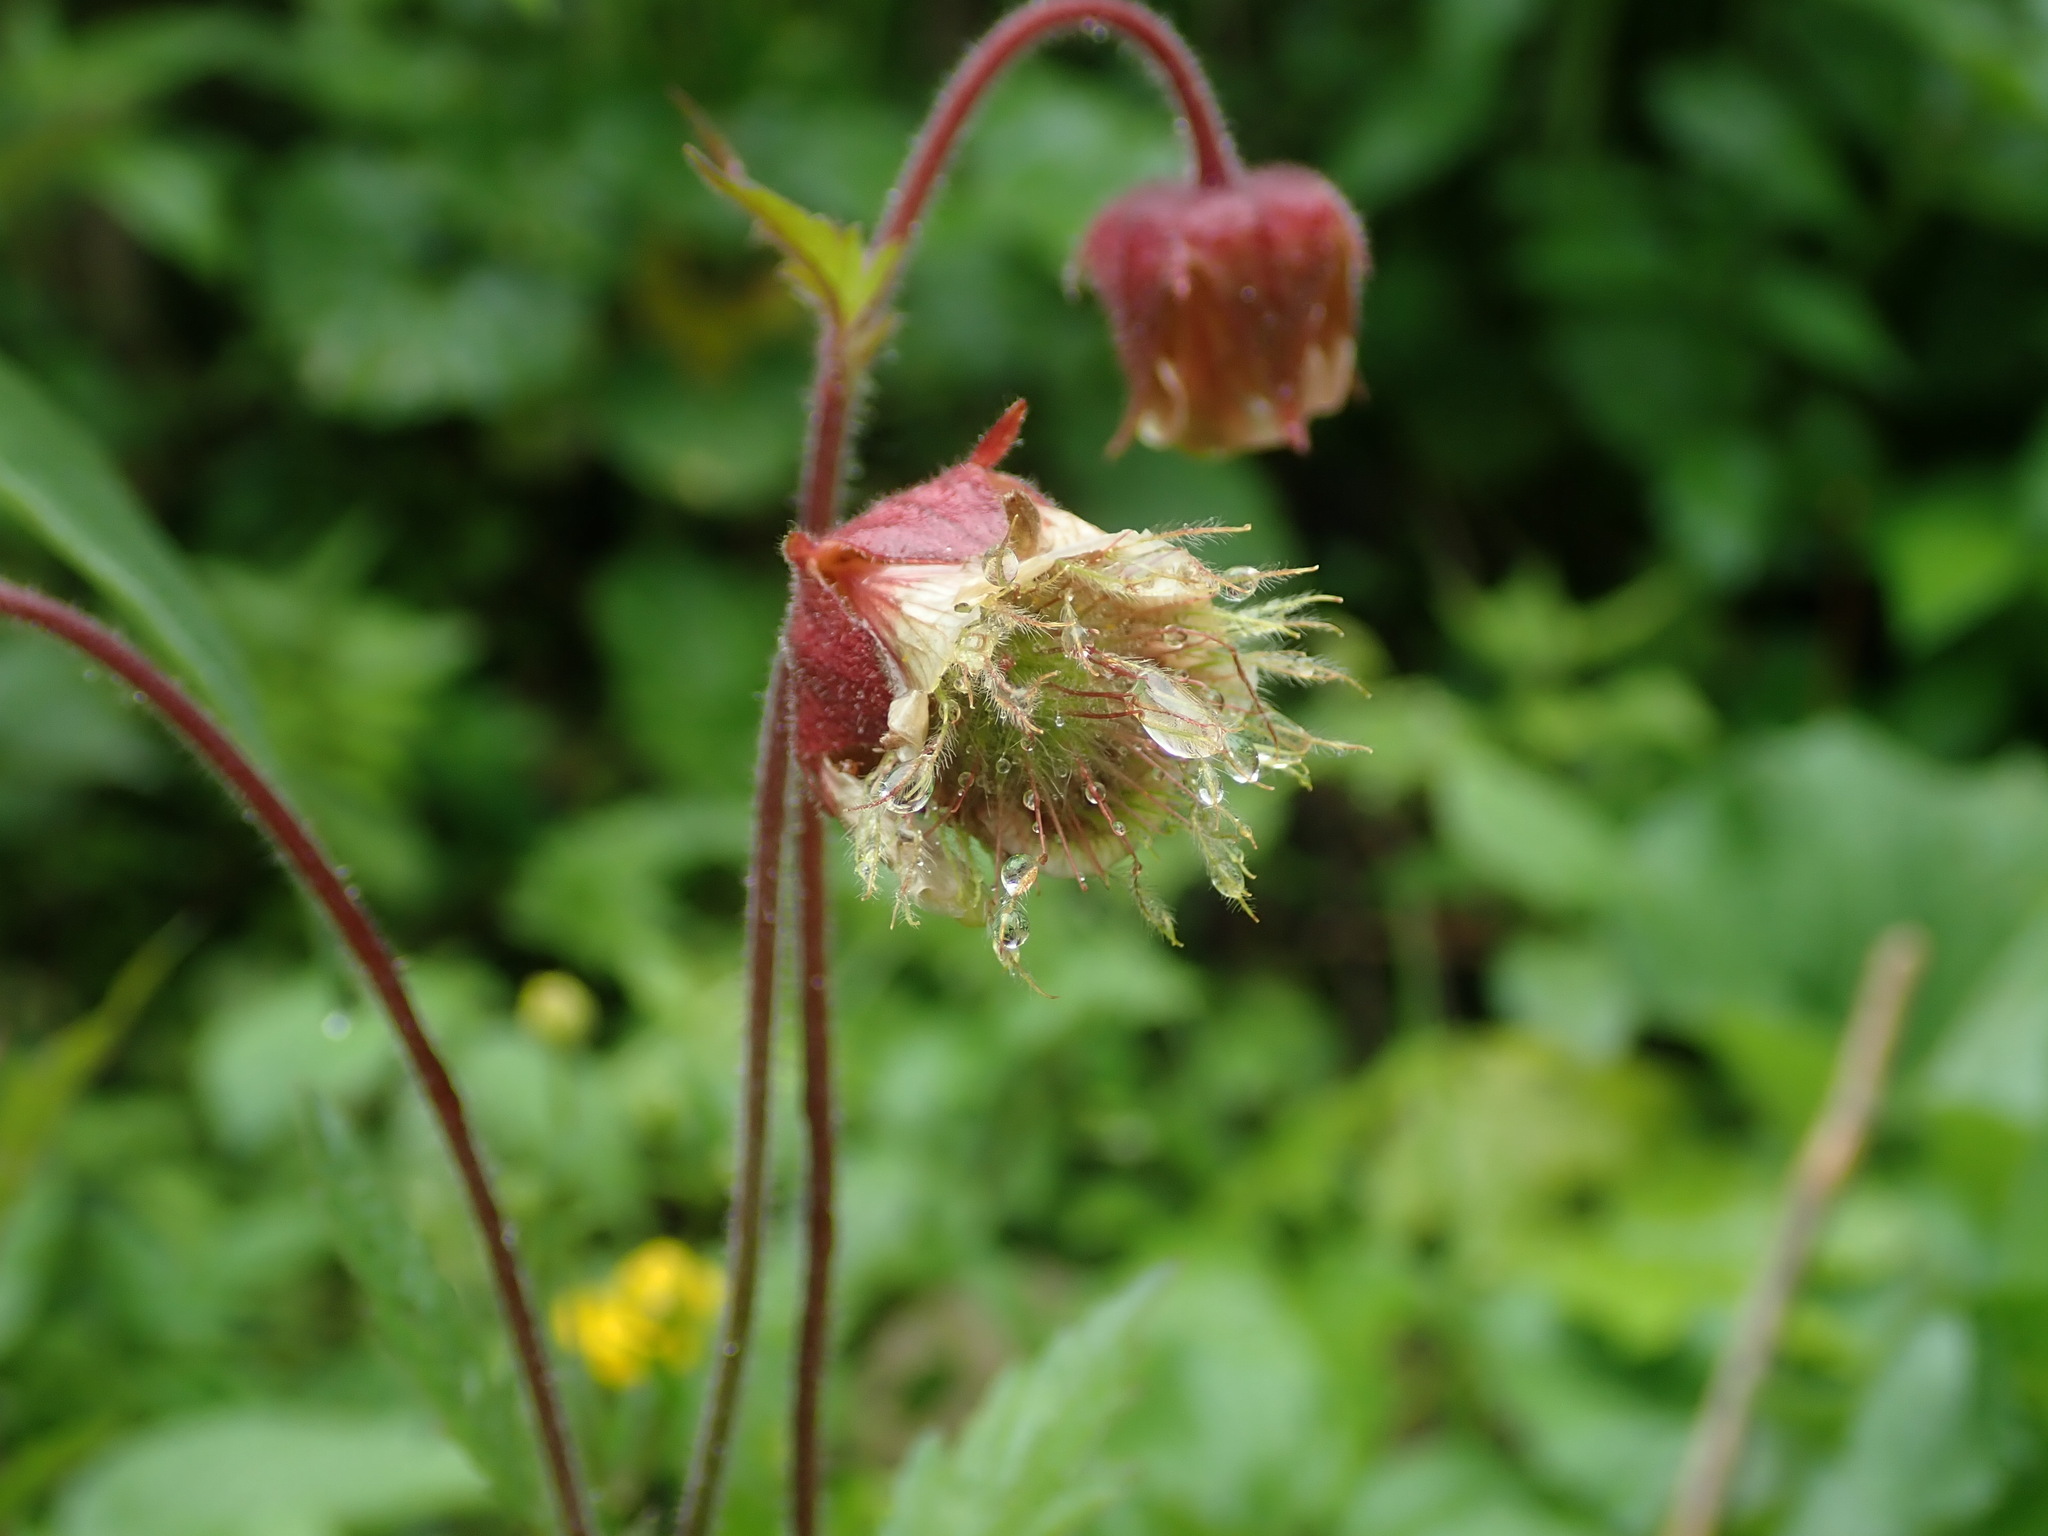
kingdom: Plantae
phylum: Tracheophyta
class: Magnoliopsida
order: Rosales
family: Rosaceae
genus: Geum
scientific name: Geum rivale
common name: Water avens
